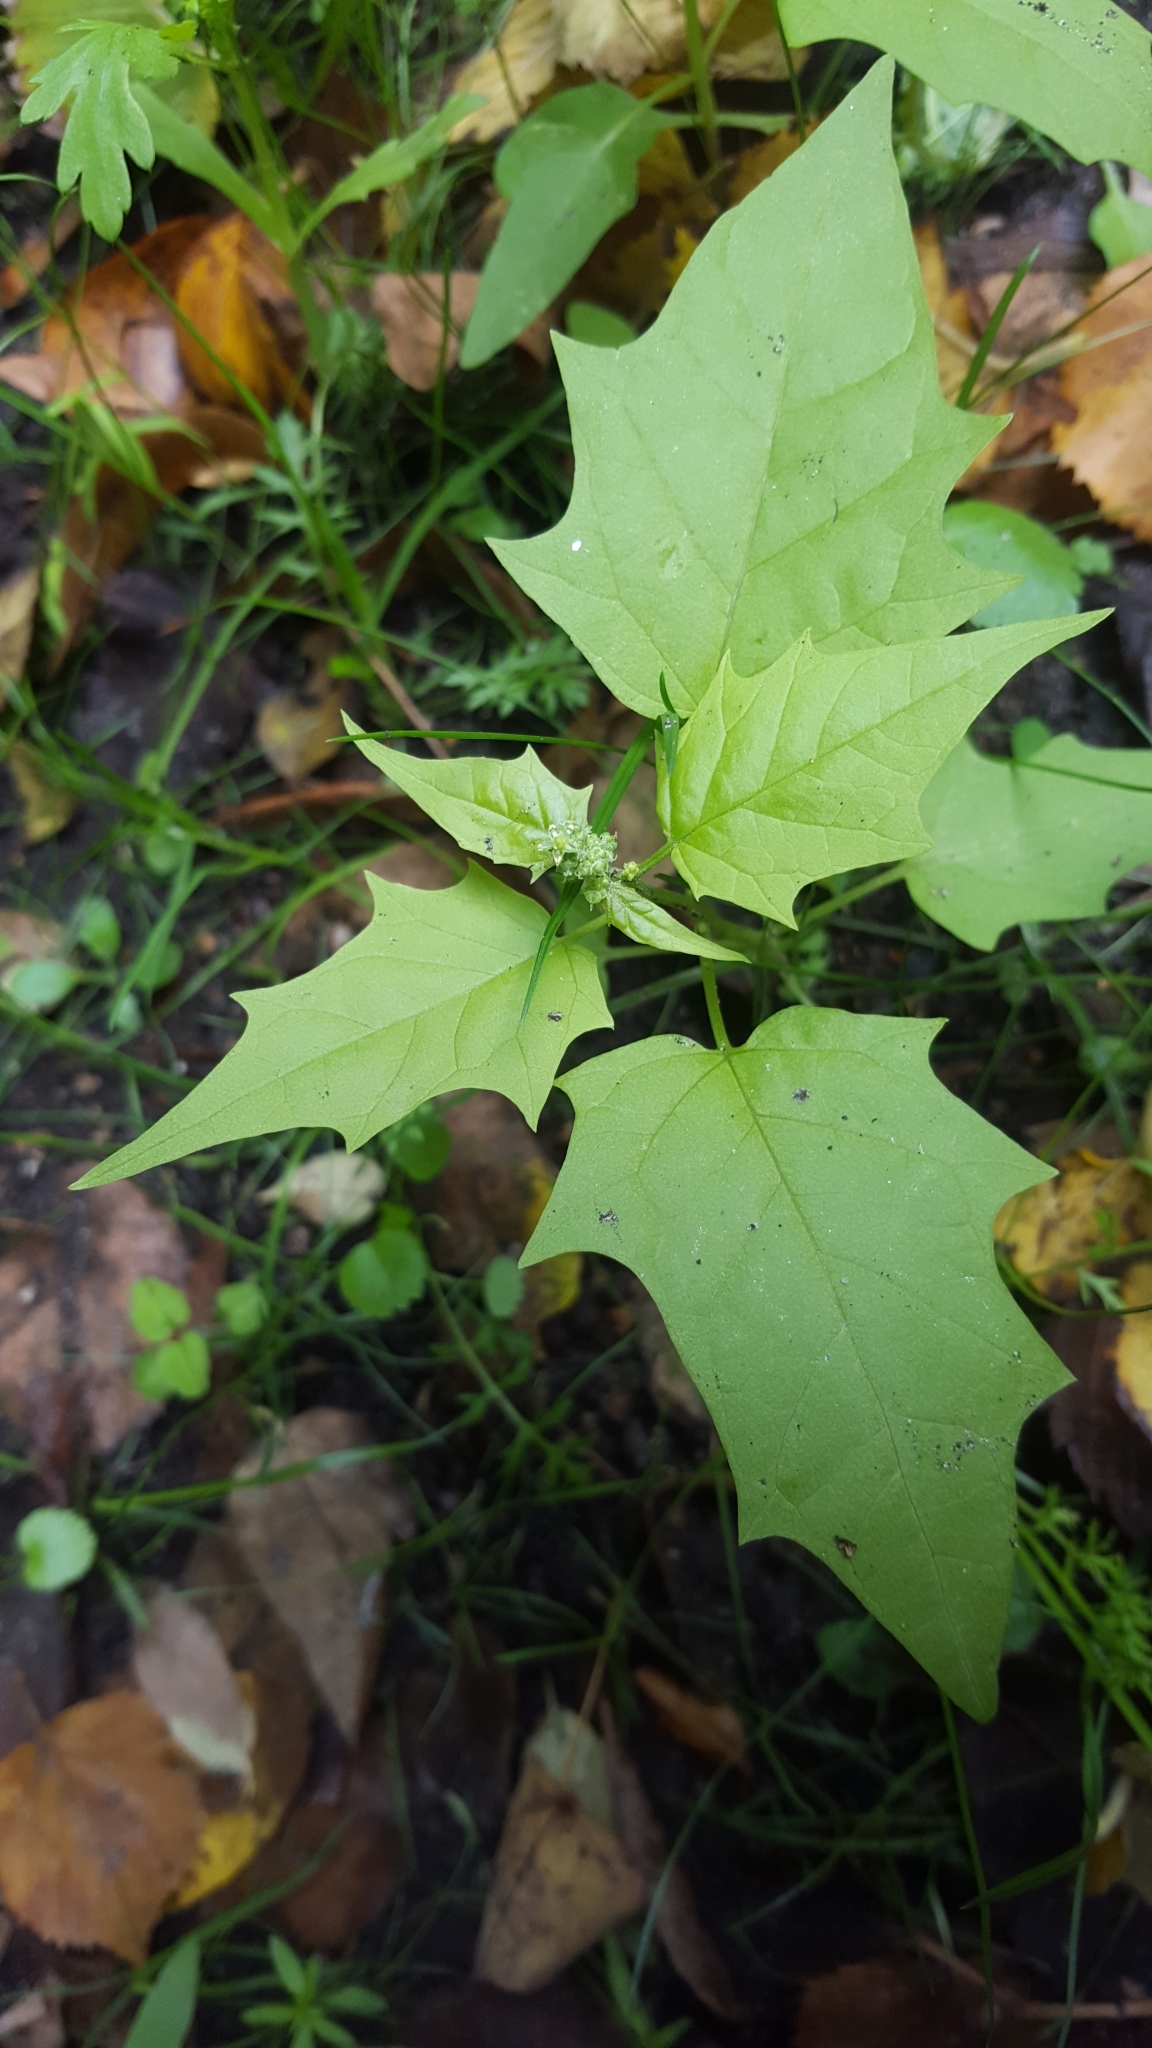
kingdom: Plantae
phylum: Tracheophyta
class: Magnoliopsida
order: Caryophyllales
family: Amaranthaceae
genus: Chenopodiastrum
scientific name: Chenopodiastrum hybridum
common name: Mapleleaf goosefoot
